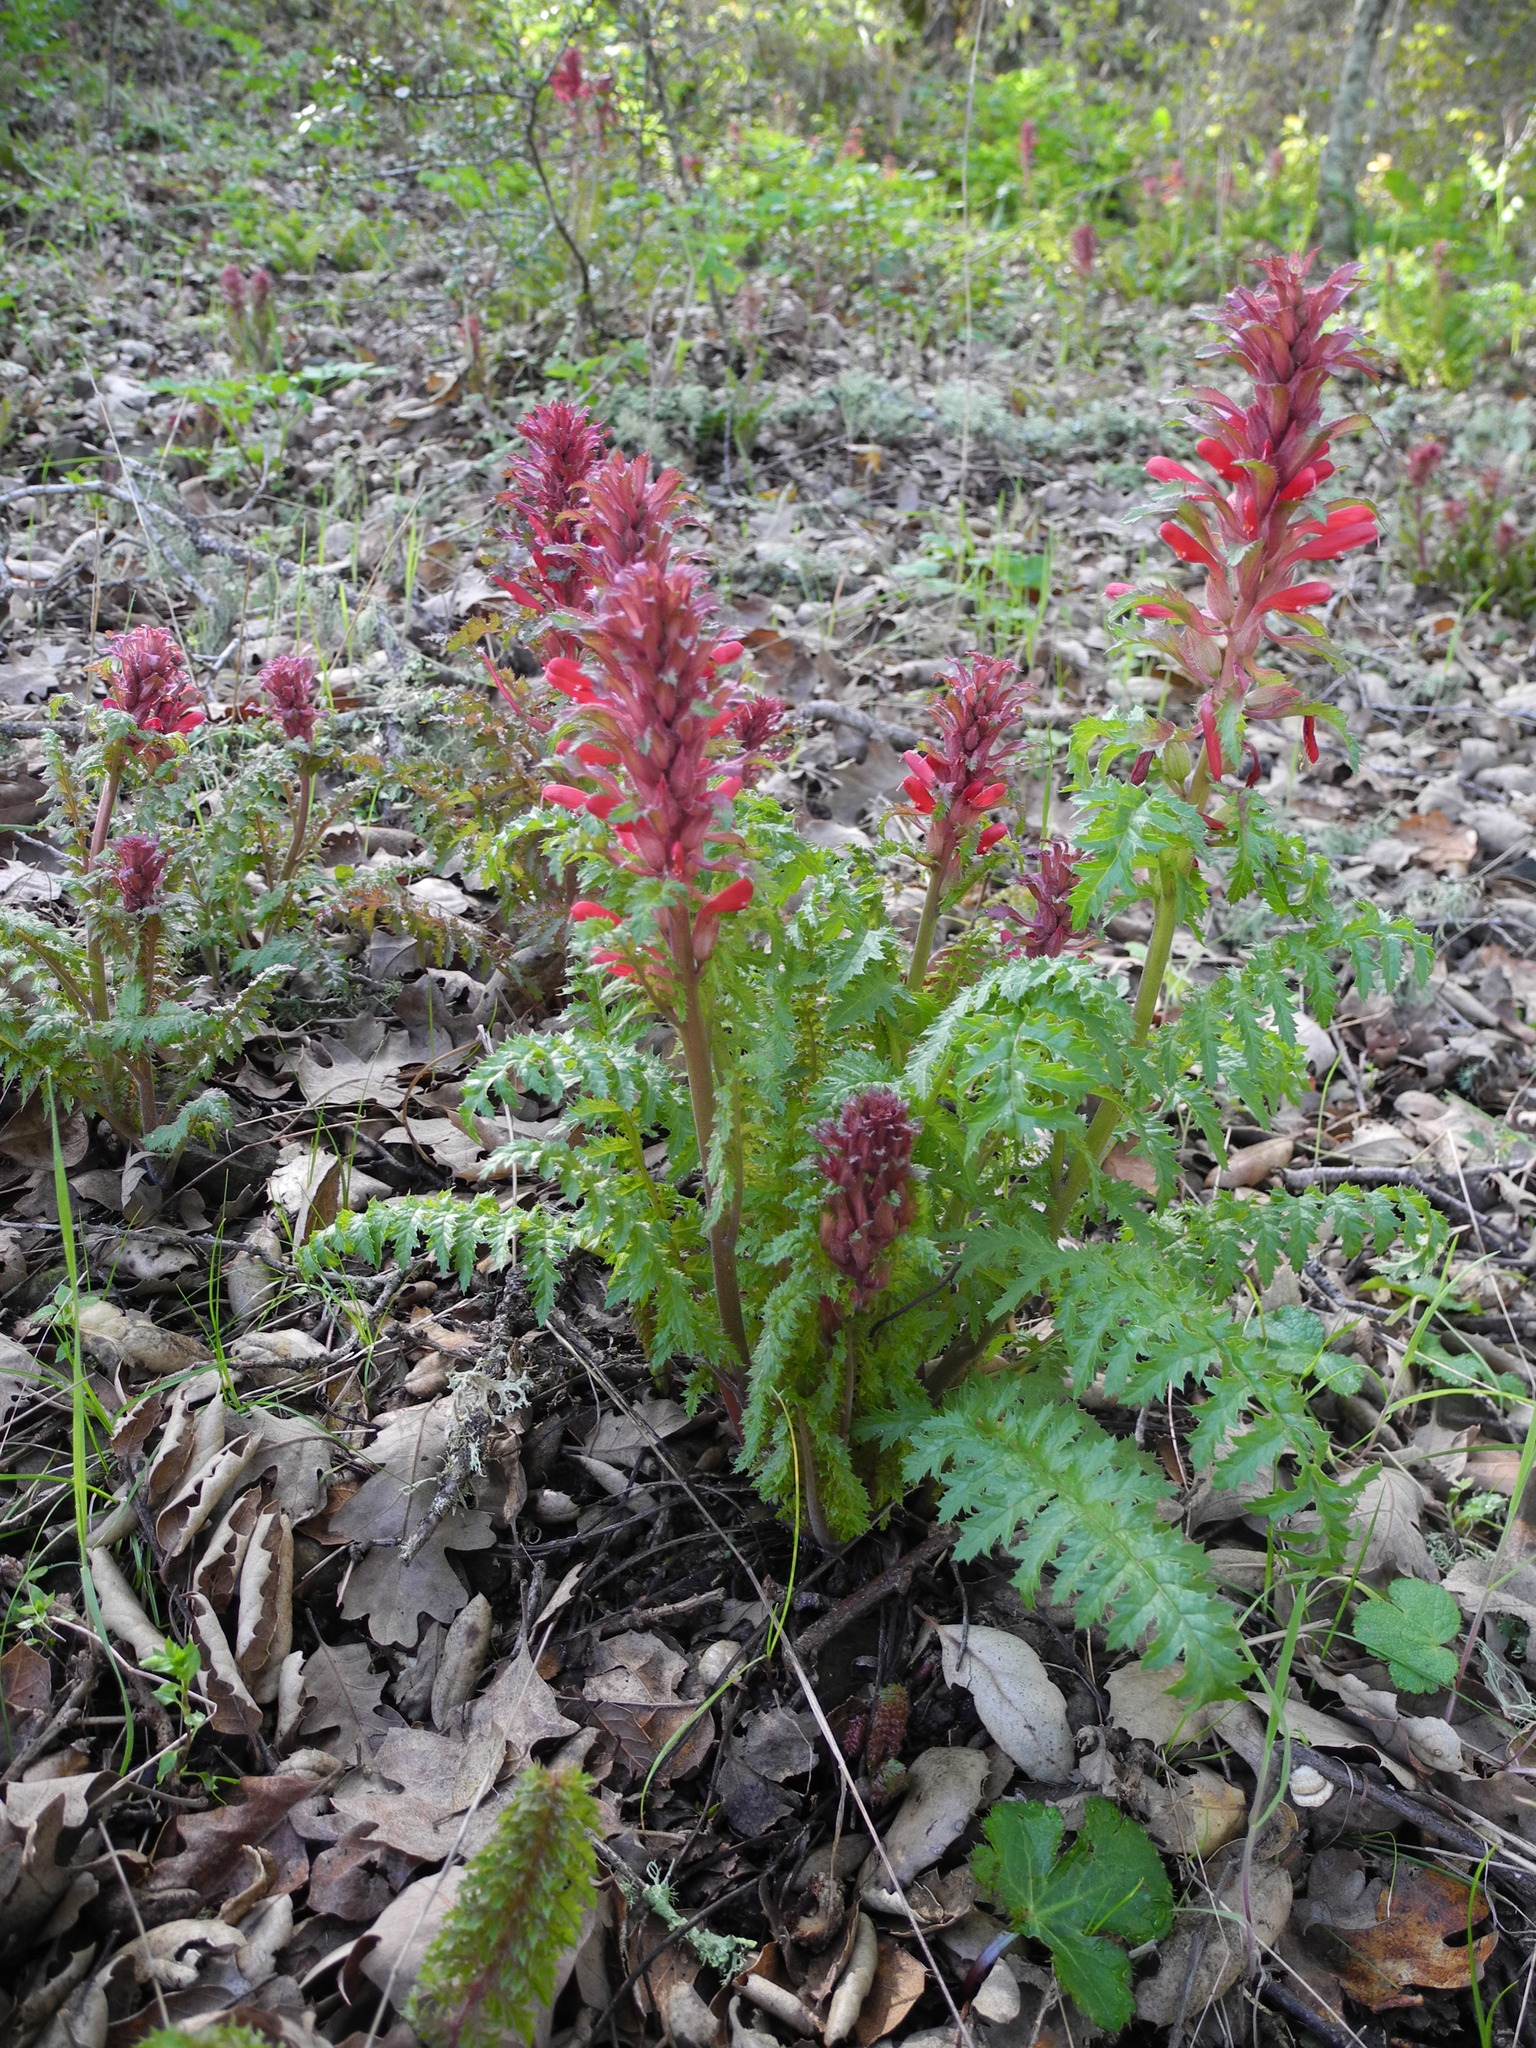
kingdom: Plantae
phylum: Tracheophyta
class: Magnoliopsida
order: Lamiales
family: Orobanchaceae
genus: Pedicularis
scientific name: Pedicularis densiflora
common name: Indian warrior
